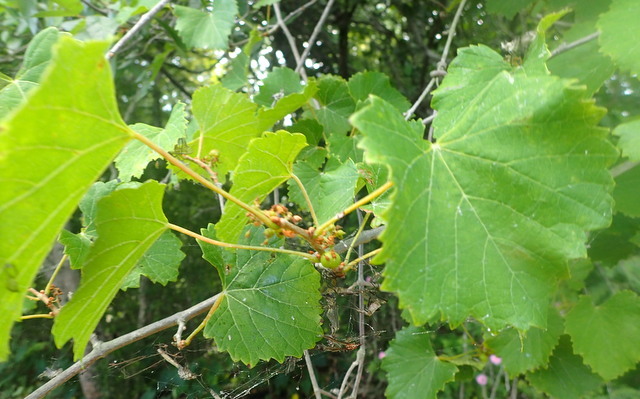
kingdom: Plantae
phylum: Tracheophyta
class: Magnoliopsida
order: Vitales
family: Vitaceae
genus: Vitis
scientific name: Vitis rotundifolia
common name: Muscadine grape
